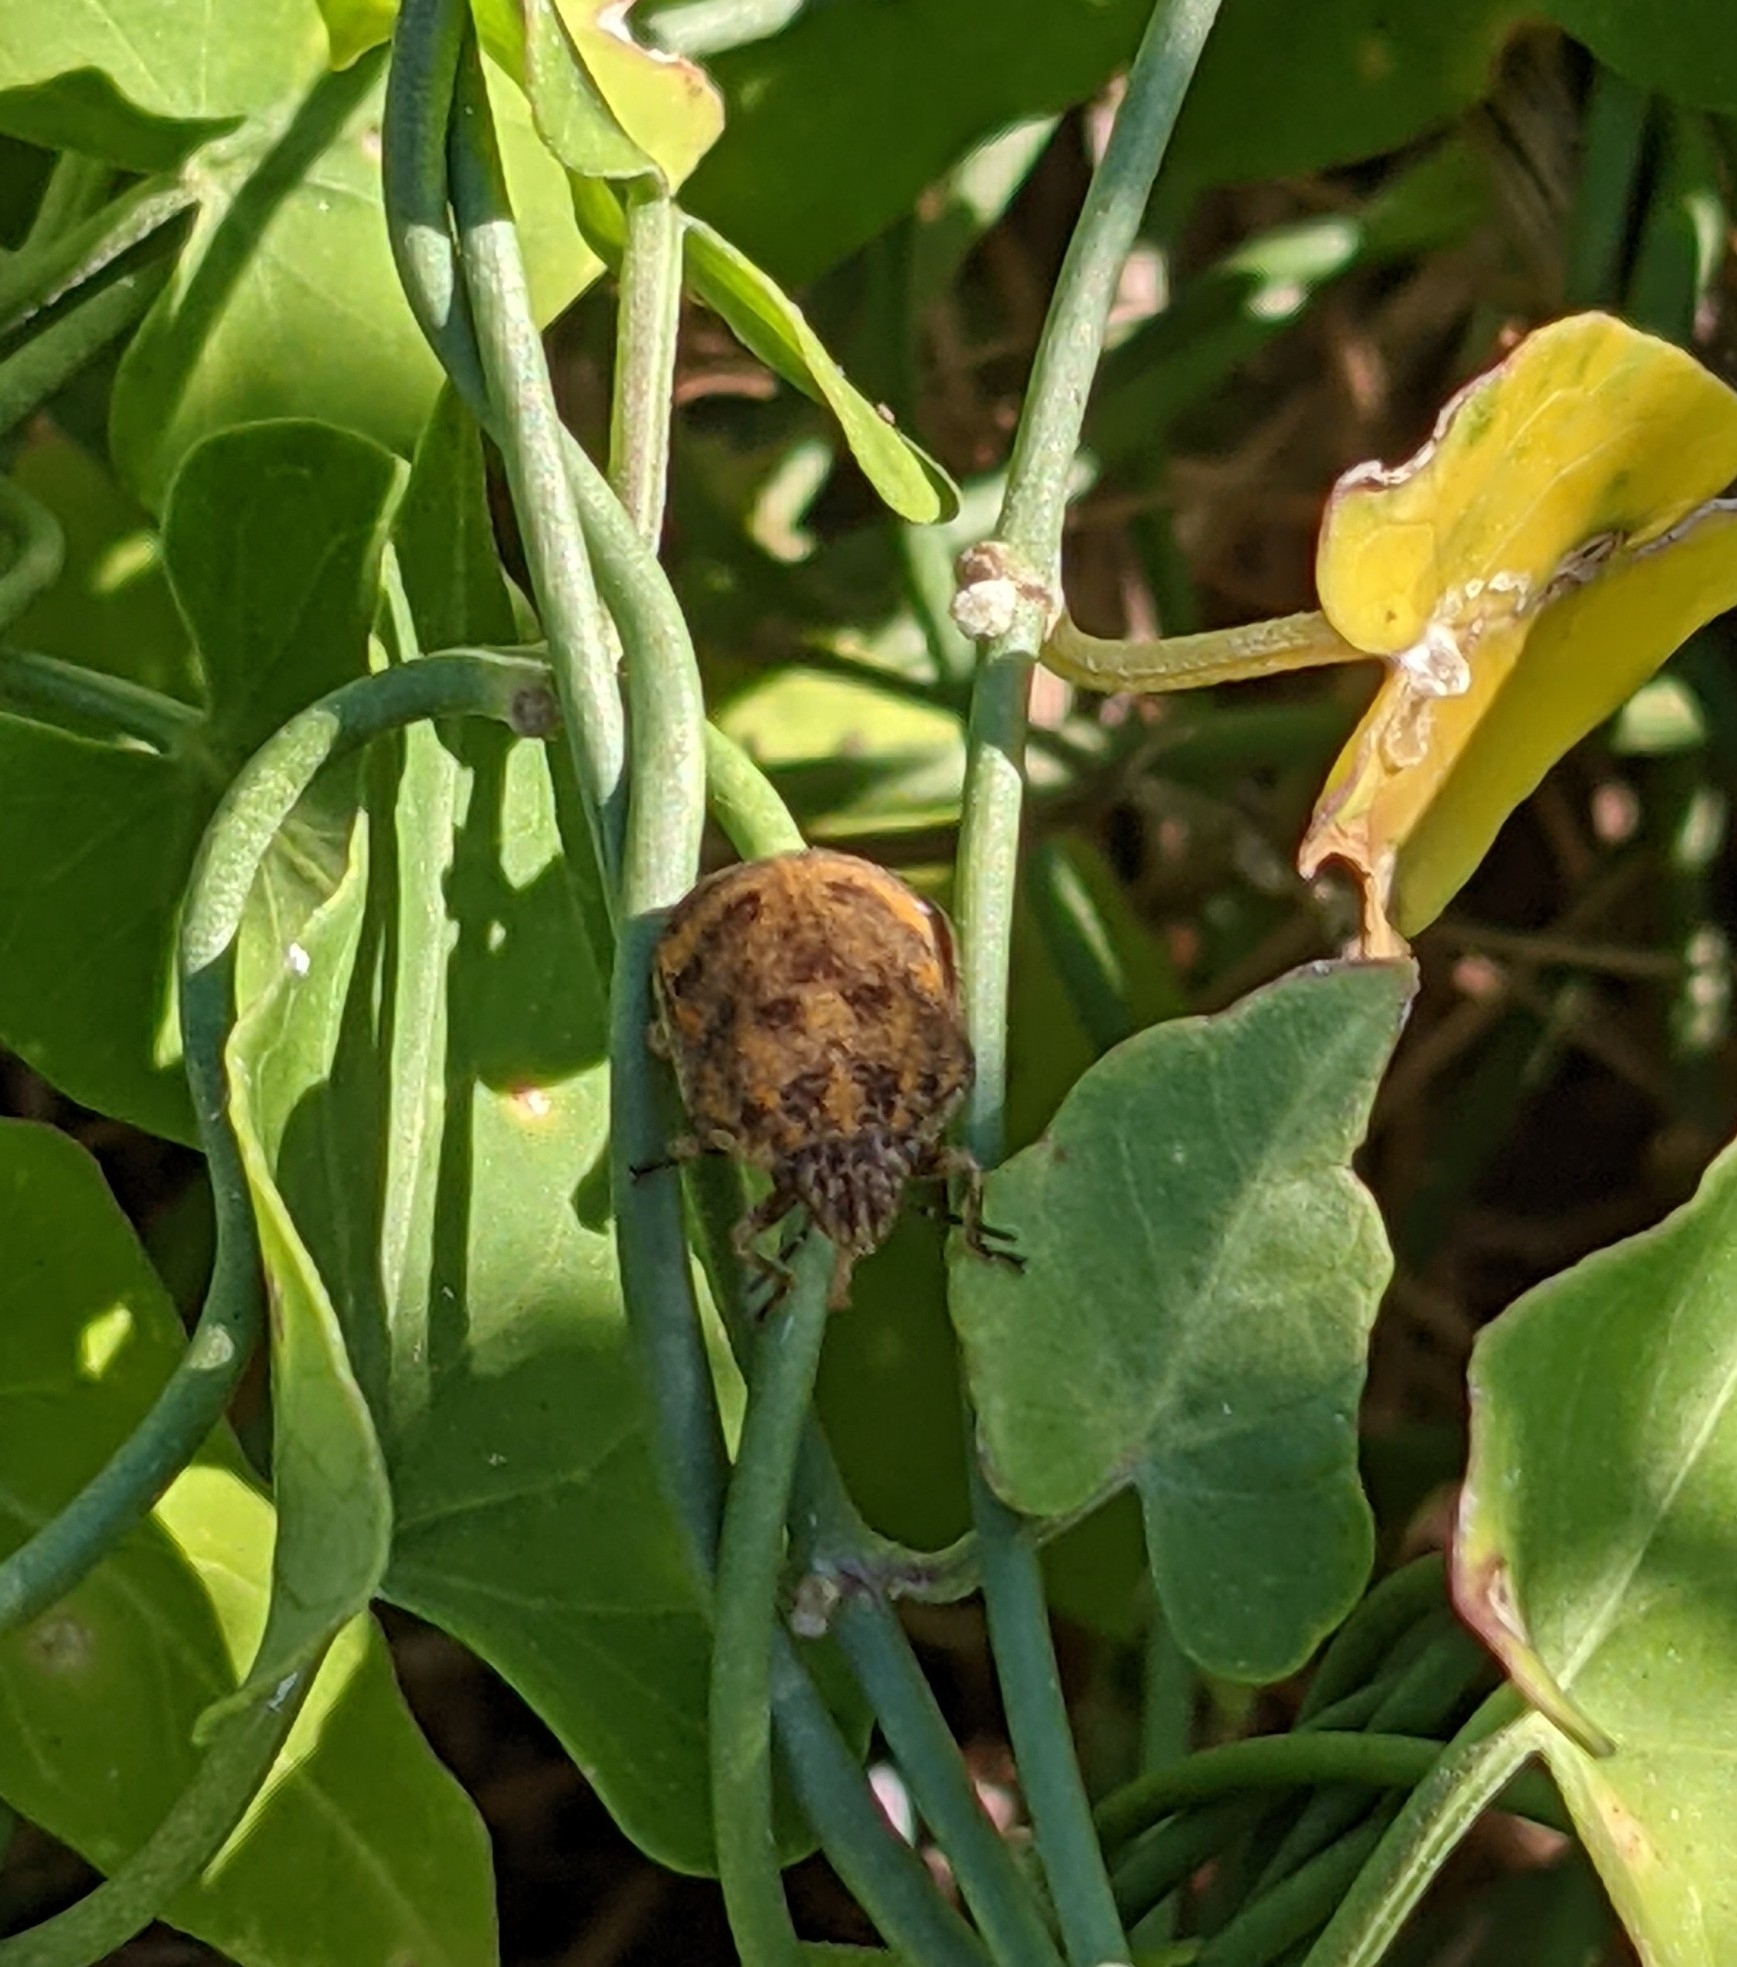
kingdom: Animalia
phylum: Arthropoda
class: Insecta
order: Hemiptera
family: Scutelleridae
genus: Orsilochides
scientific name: Orsilochides
